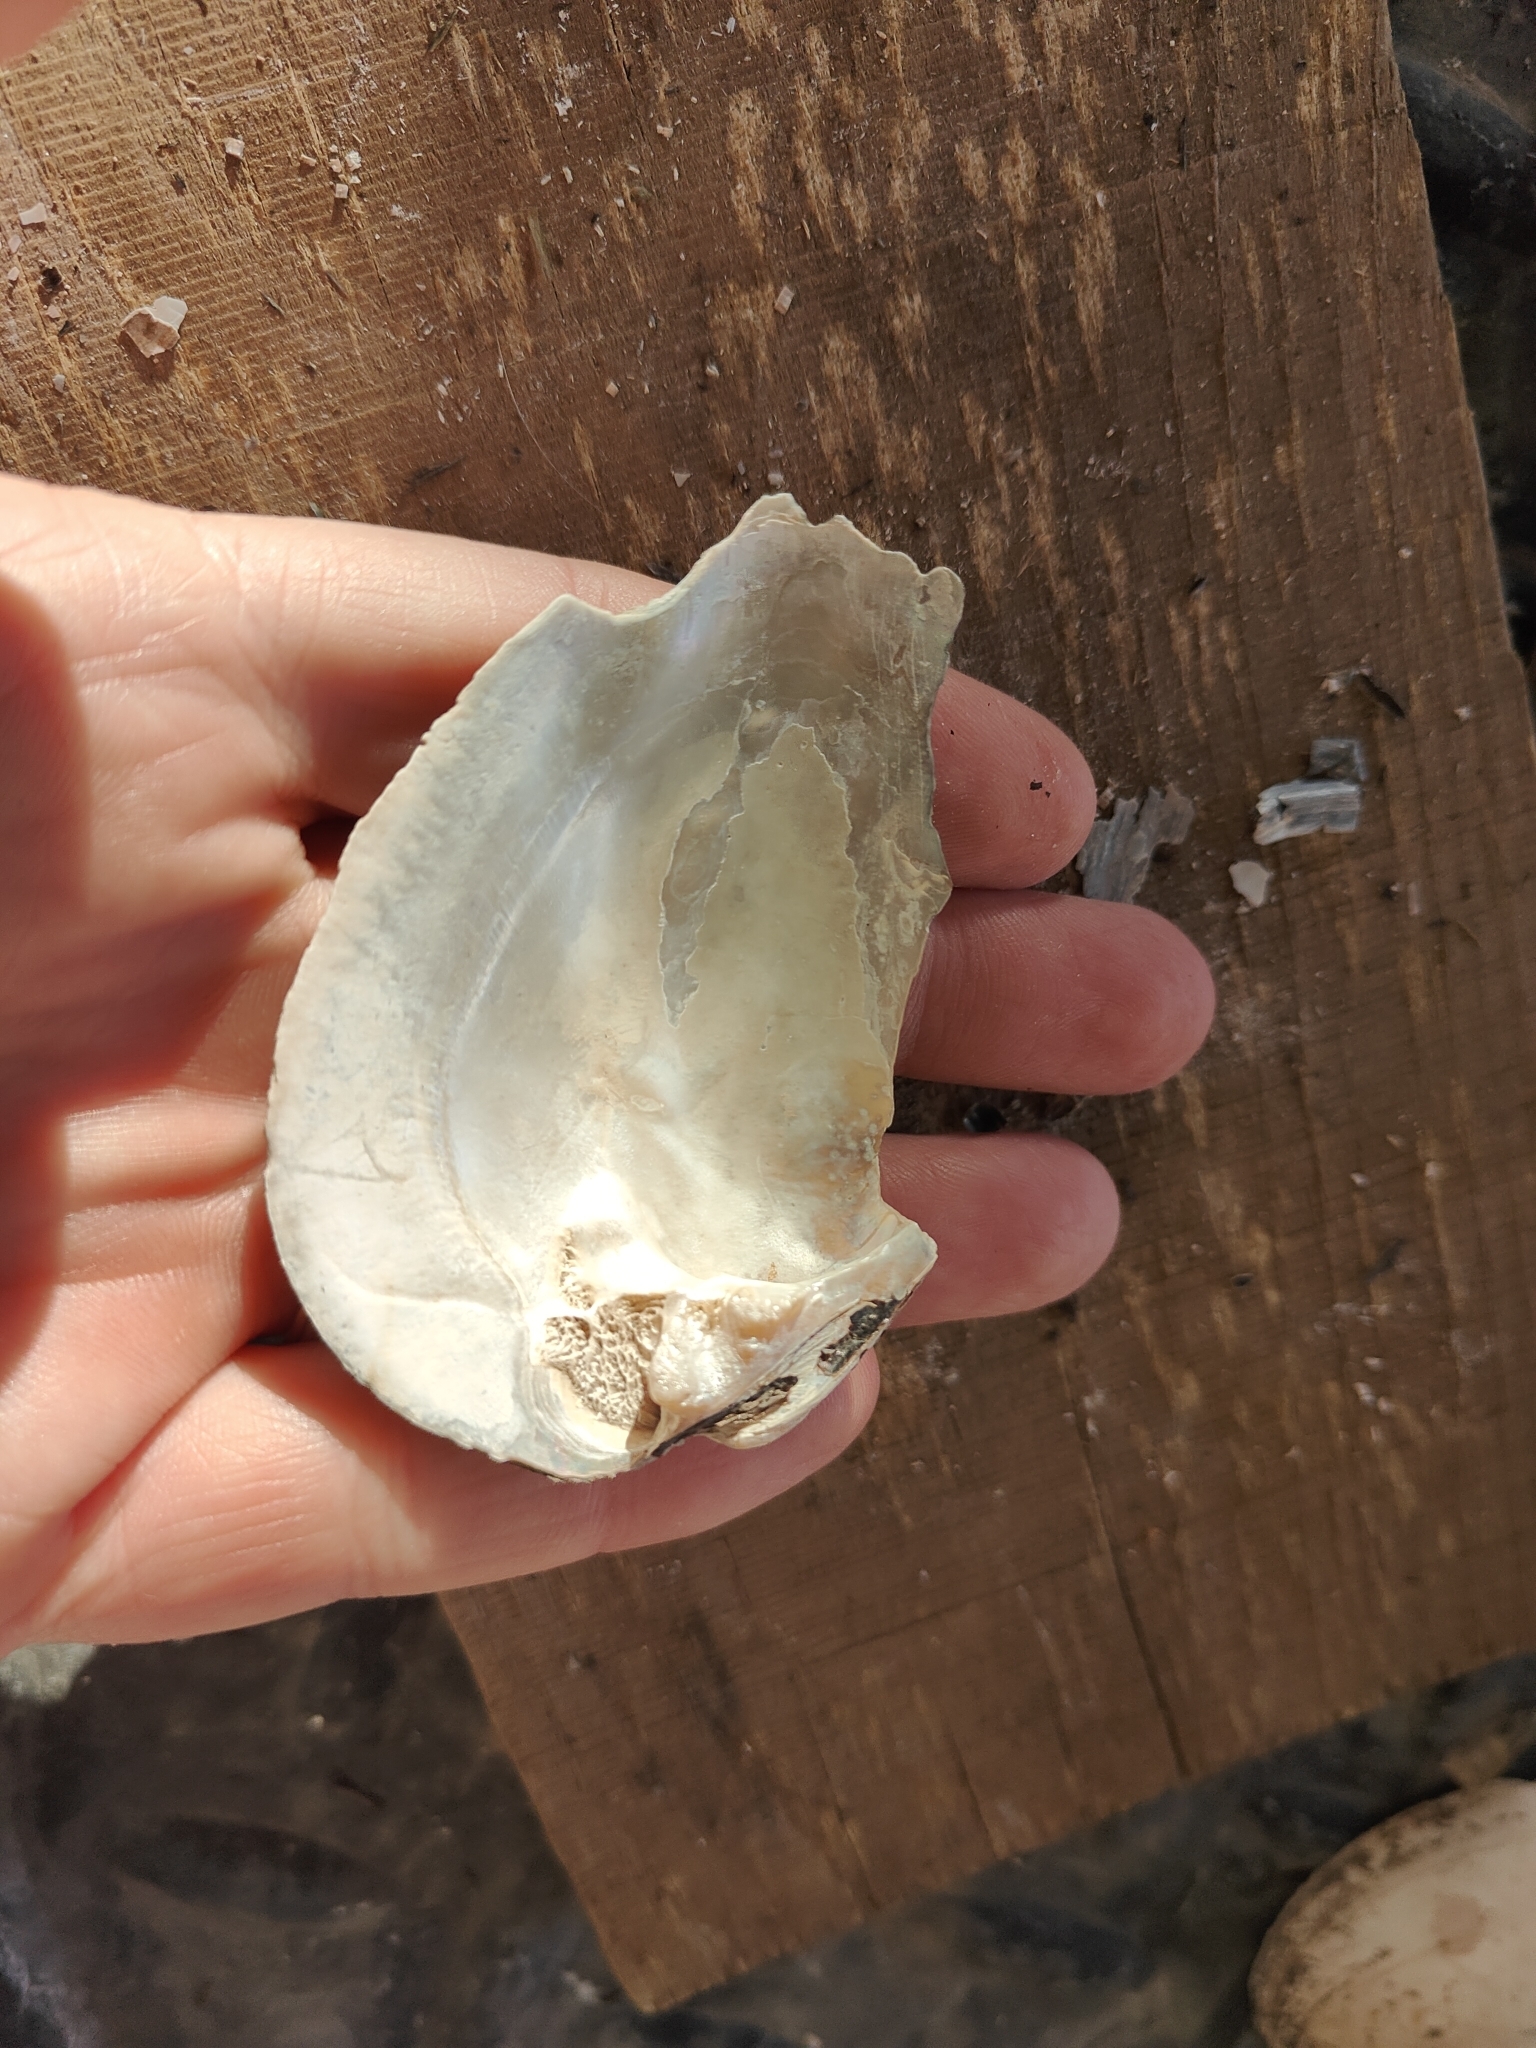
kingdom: Animalia
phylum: Mollusca
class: Bivalvia
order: Unionida
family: Unionidae
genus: Amblema
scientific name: Amblema plicata
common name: Threeridge
